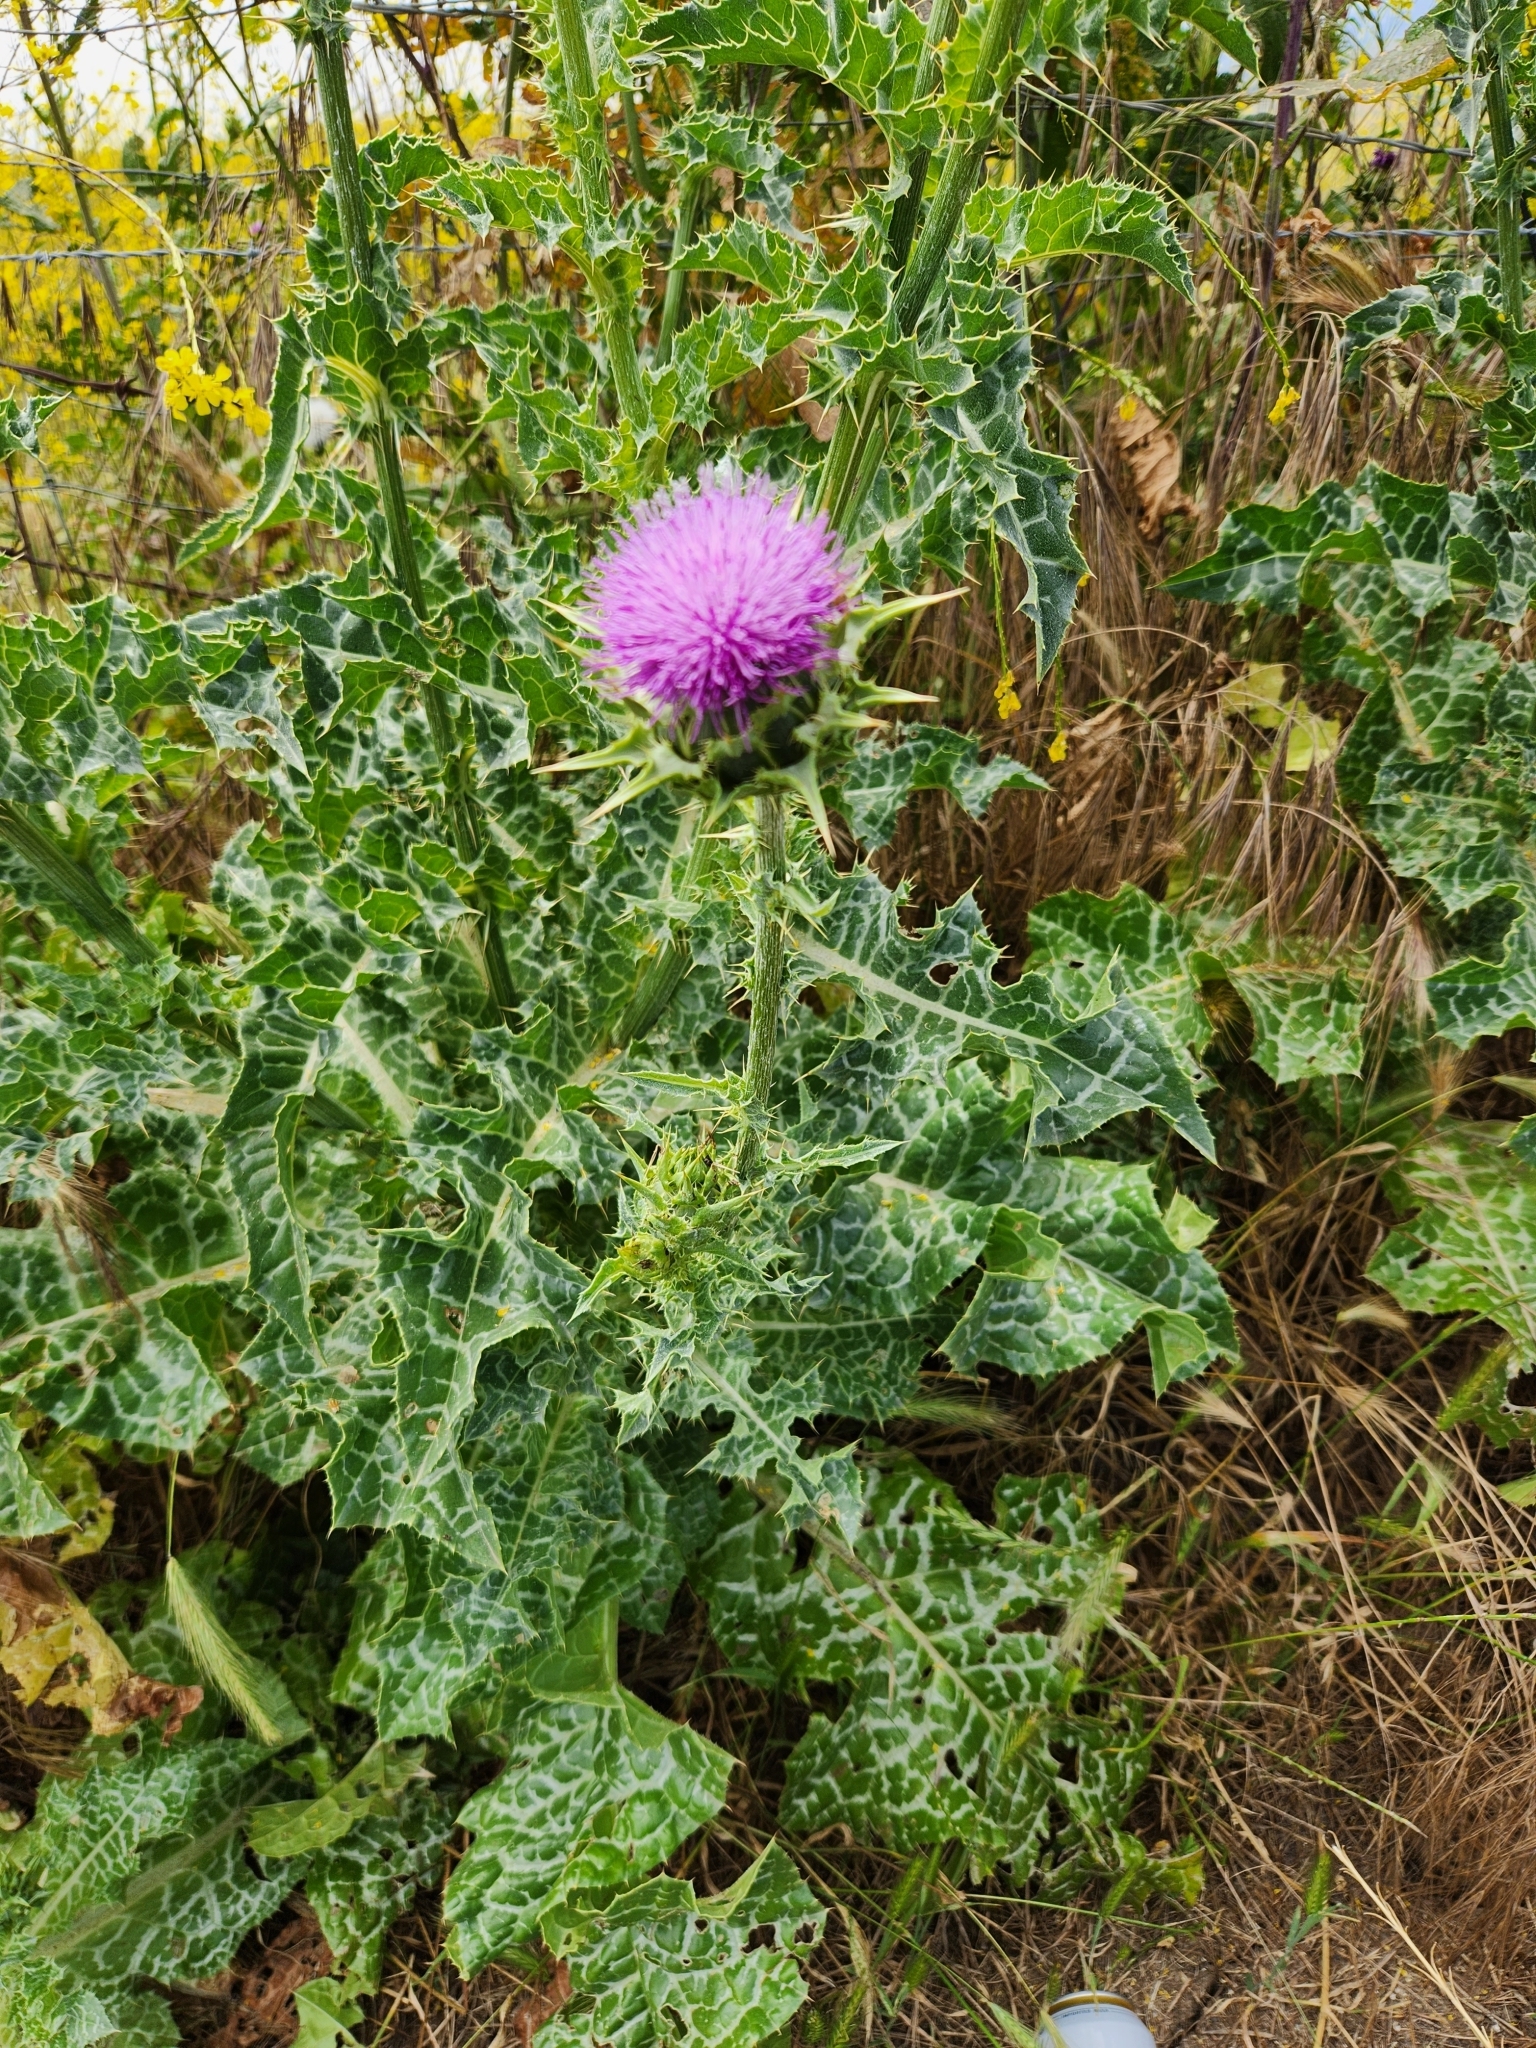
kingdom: Plantae
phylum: Tracheophyta
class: Magnoliopsida
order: Asterales
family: Asteraceae
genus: Silybum
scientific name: Silybum marianum
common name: Milk thistle
